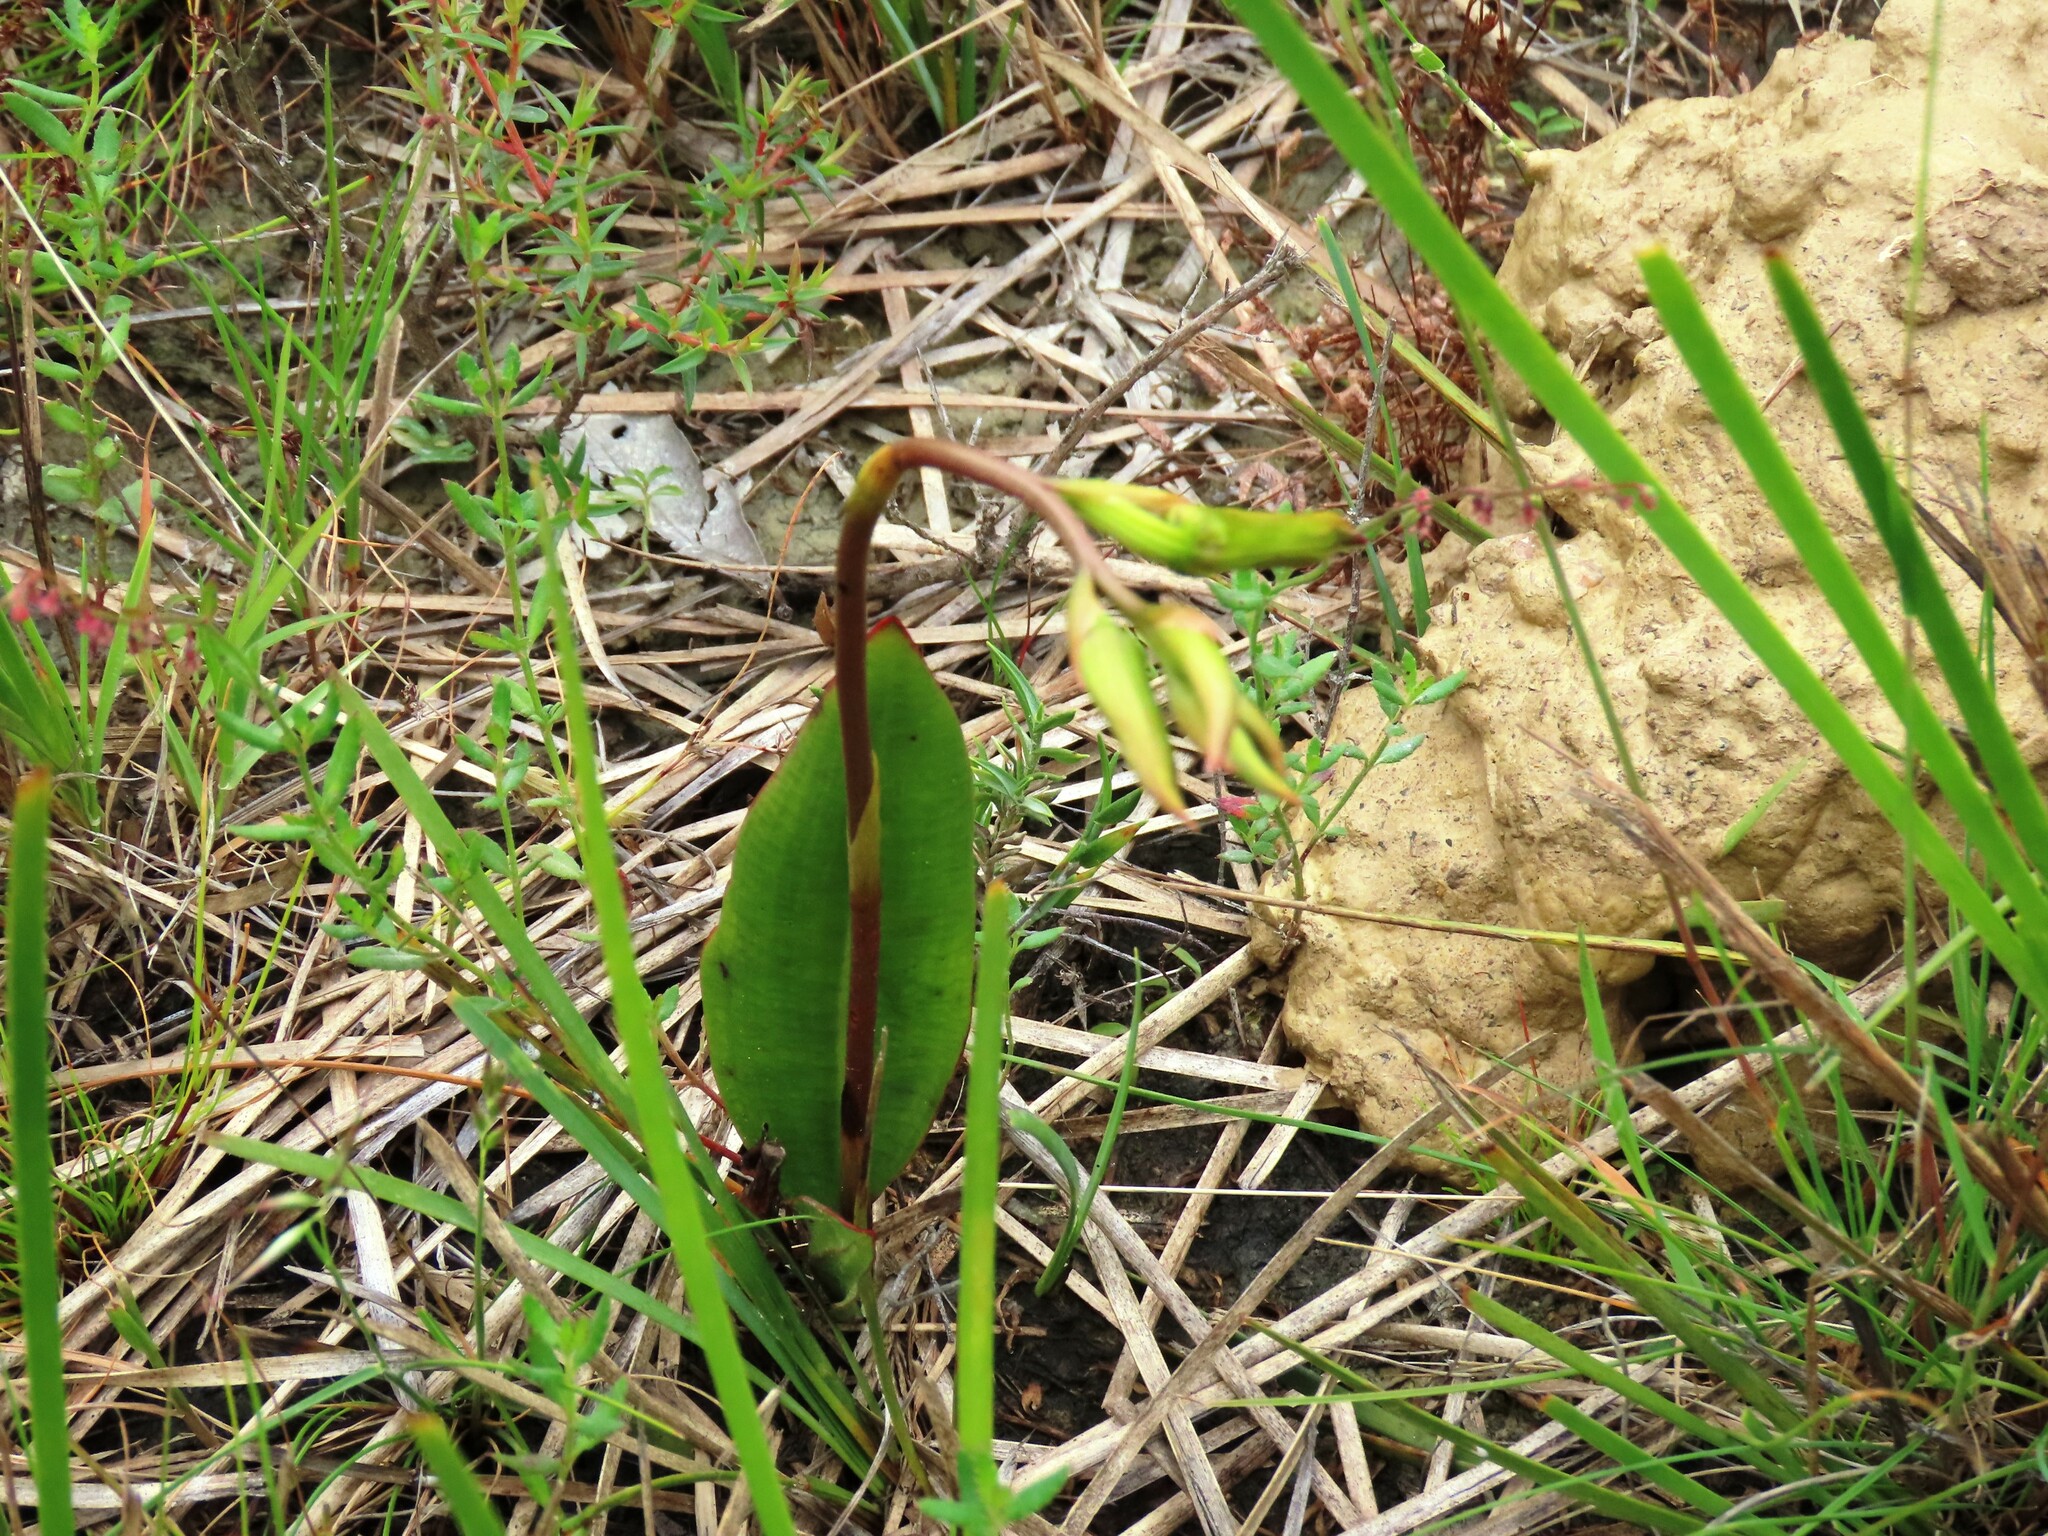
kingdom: Plantae
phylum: Tracheophyta
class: Liliopsida
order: Asparagales
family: Orchidaceae
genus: Cryptostylis
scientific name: Cryptostylis subulata
